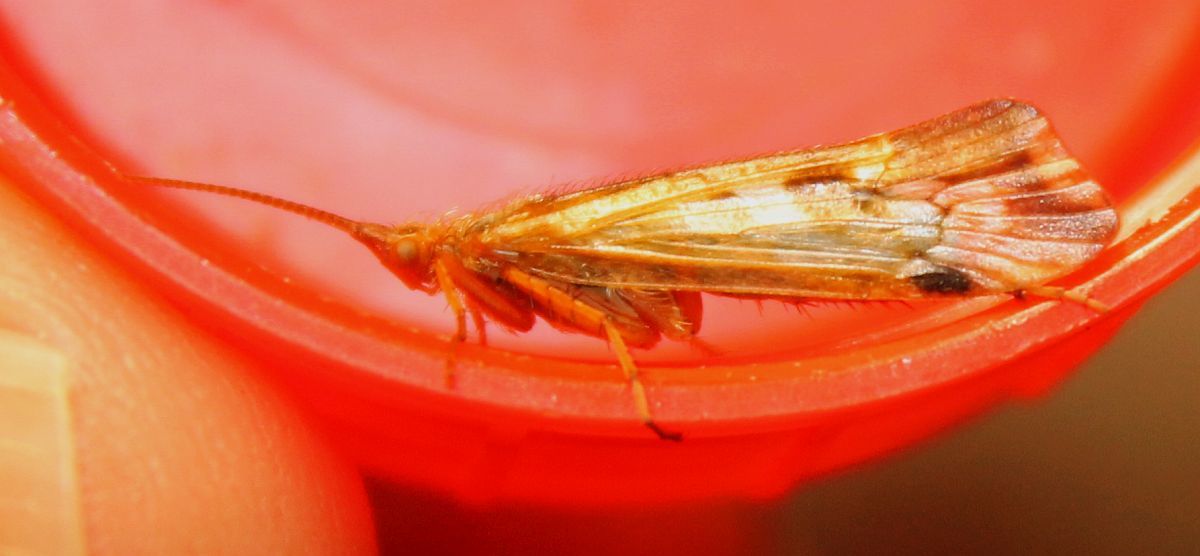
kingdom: Animalia
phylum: Arthropoda
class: Insecta
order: Trichoptera
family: Limnephilidae
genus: Limnephilus
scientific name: Limnephilus lunatus
